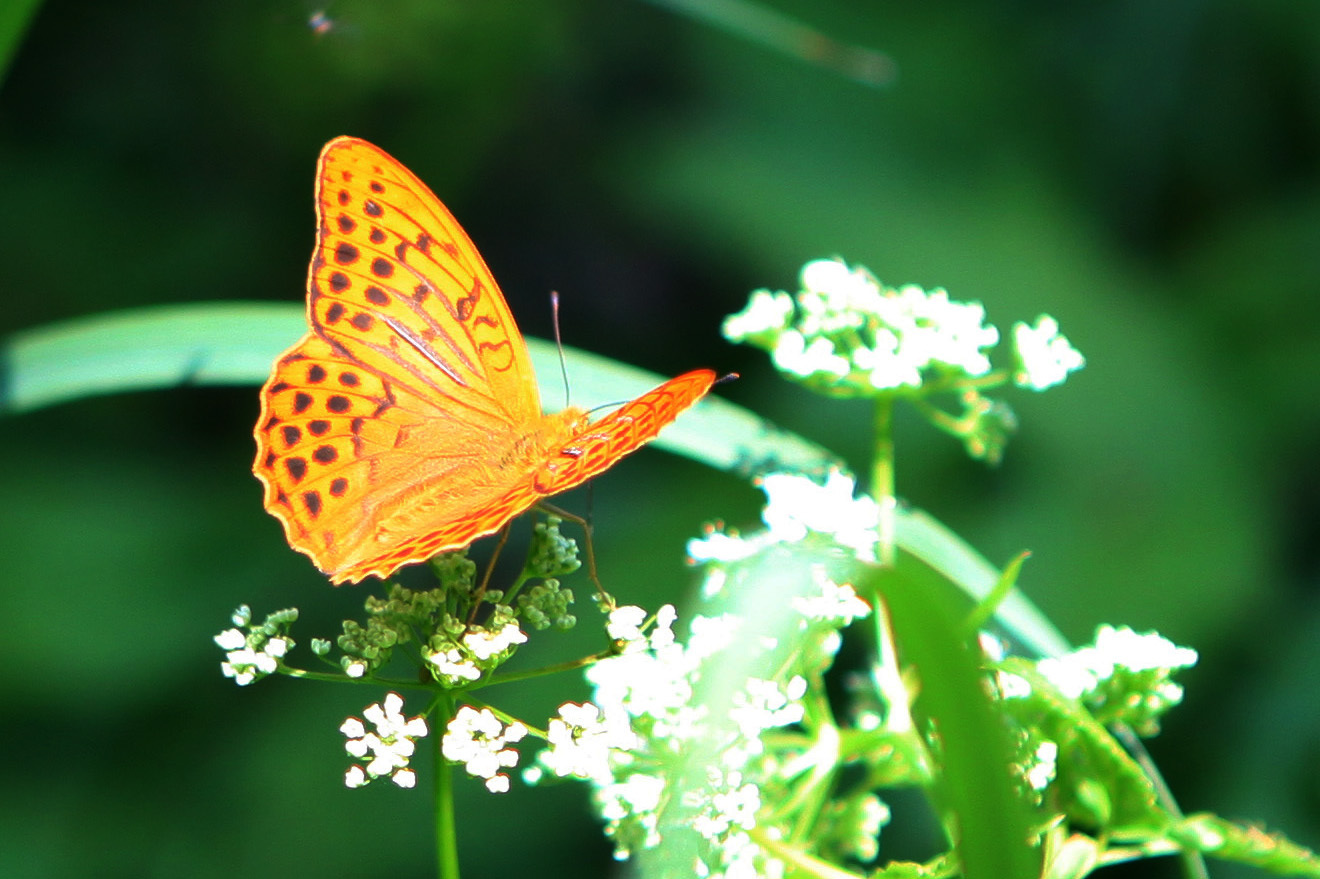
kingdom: Animalia
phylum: Arthropoda
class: Insecta
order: Lepidoptera
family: Nymphalidae
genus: Argynnis
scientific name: Argynnis paphia
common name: Silver-washed fritillary
